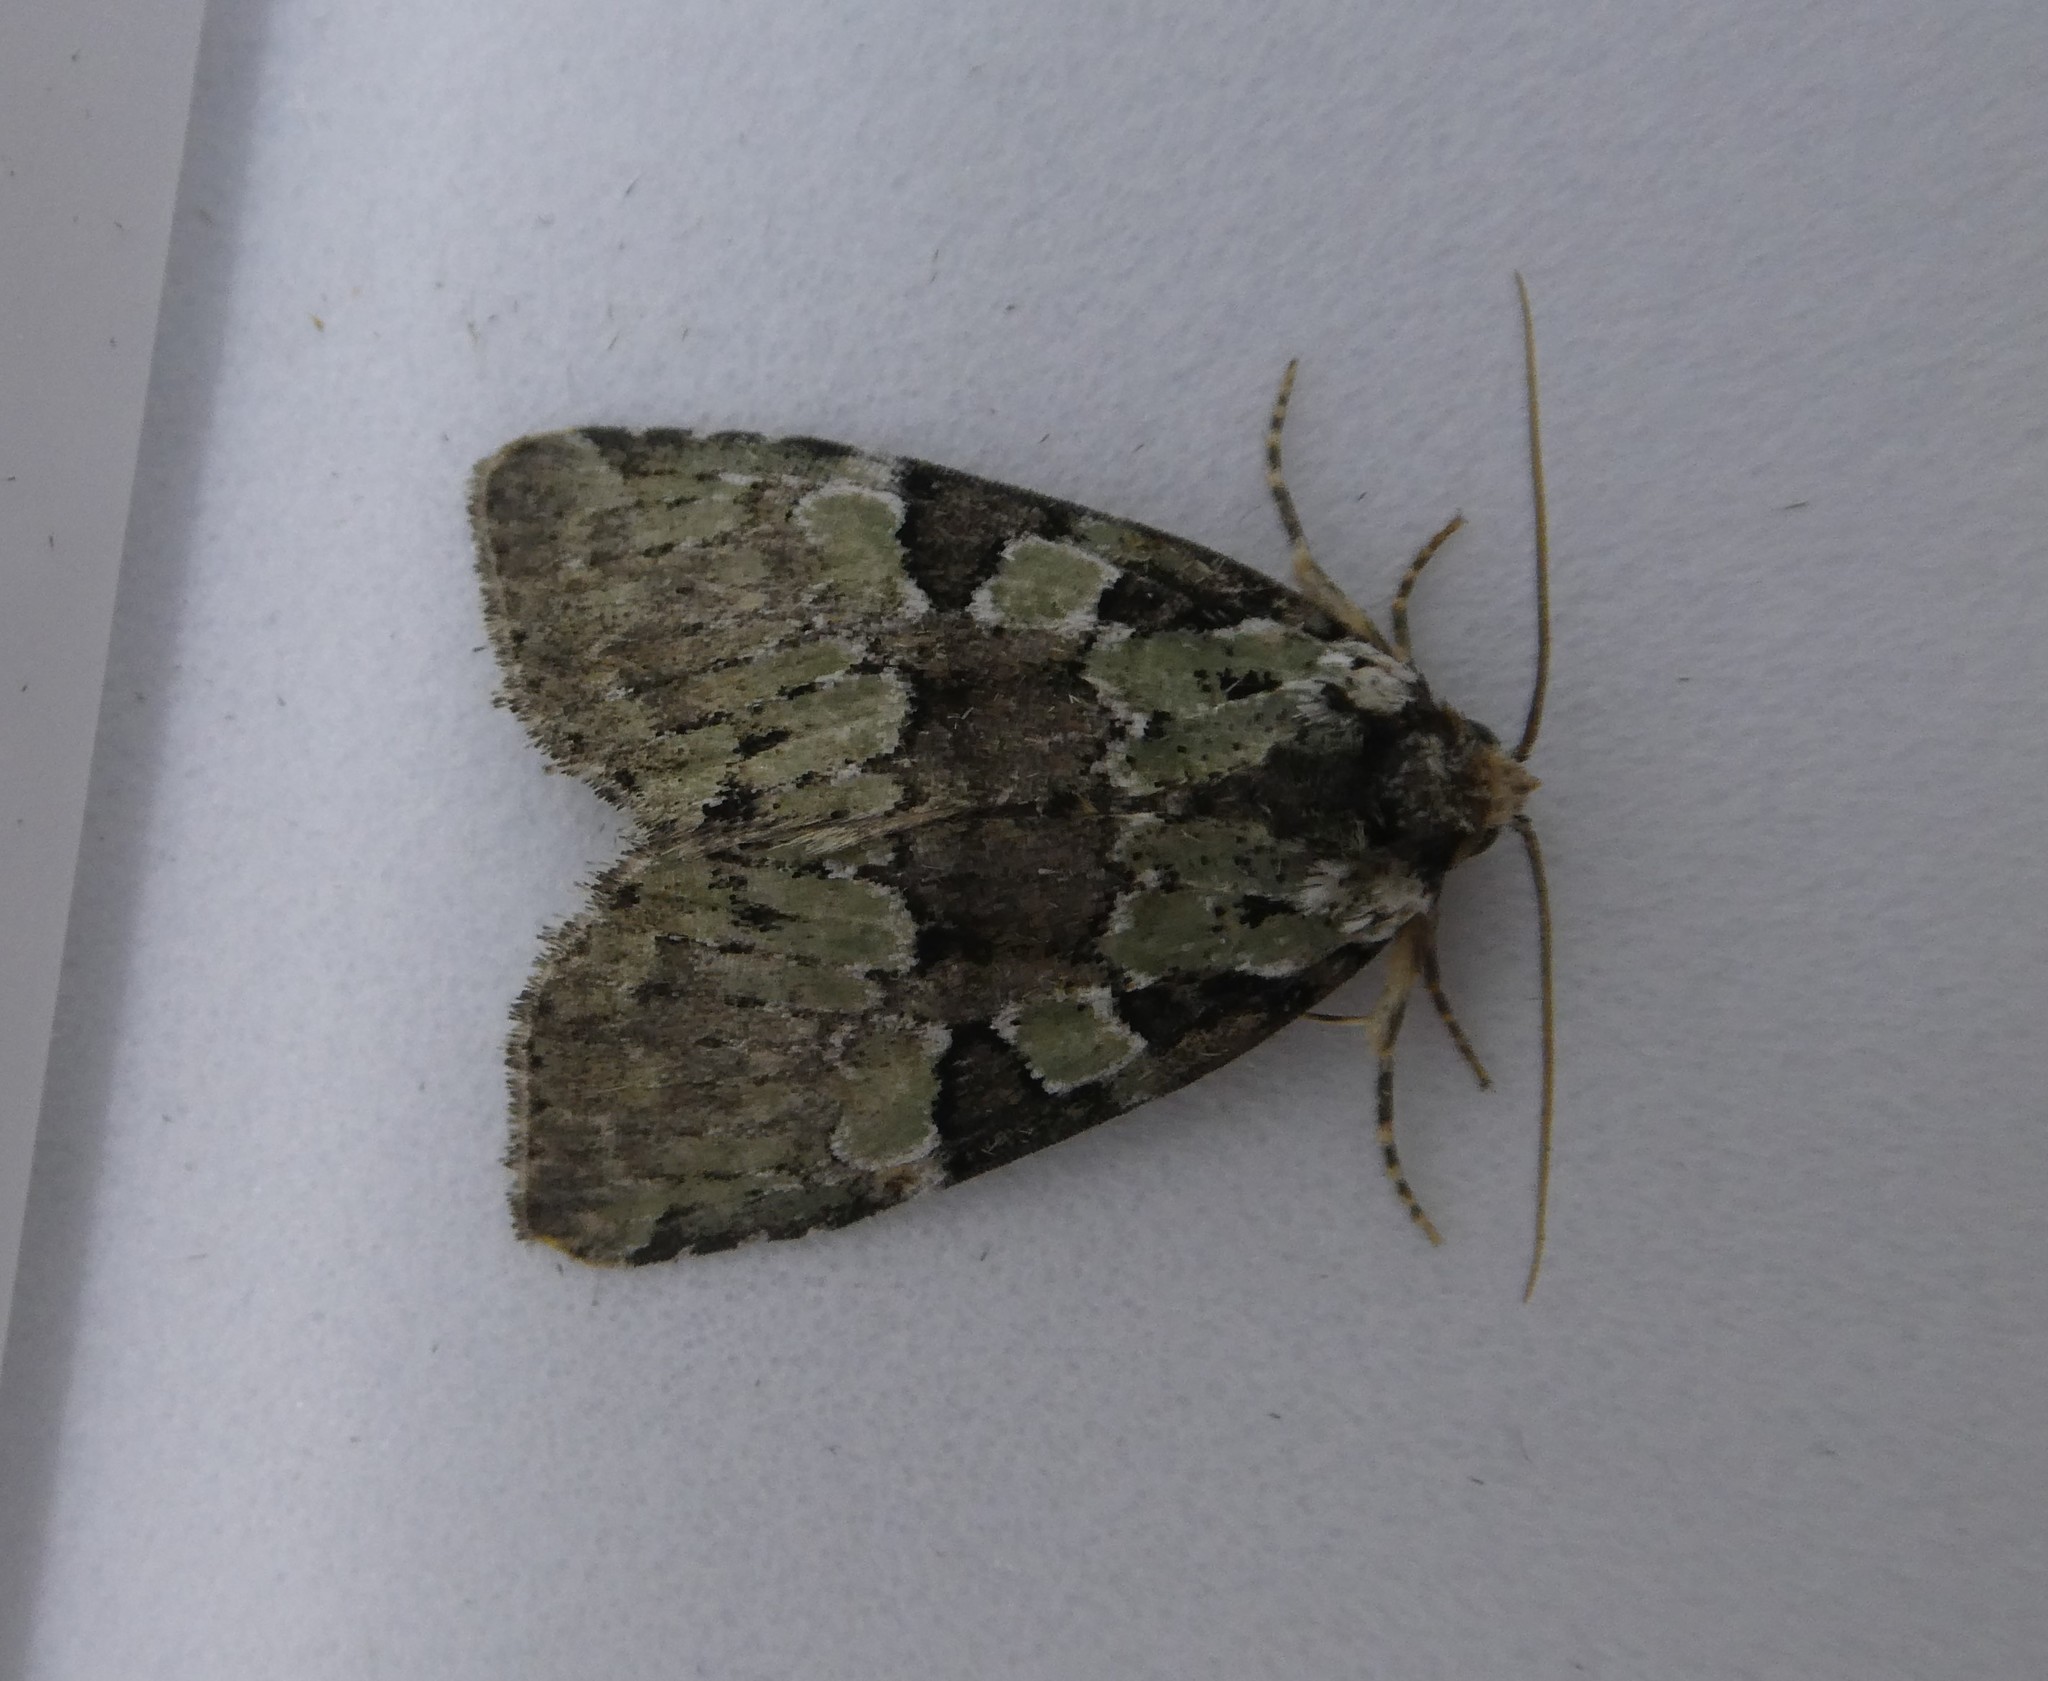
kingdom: Animalia
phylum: Arthropoda
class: Insecta
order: Lepidoptera
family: Noctuidae
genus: Leuconycta
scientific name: Leuconycta lepidula
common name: Marbled-green leuconycta moth
